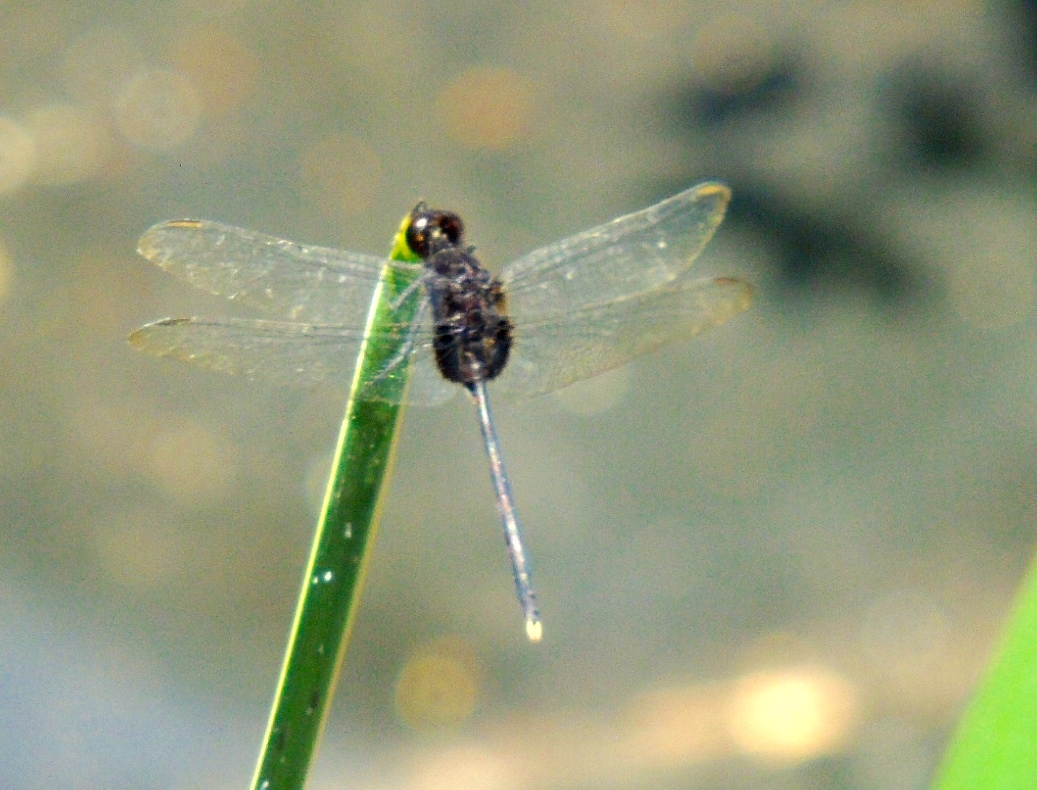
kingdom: Animalia
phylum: Arthropoda
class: Insecta
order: Odonata
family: Libellulidae
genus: Erythemis
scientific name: Erythemis plebeja
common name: Pin-tailed pondhawk
